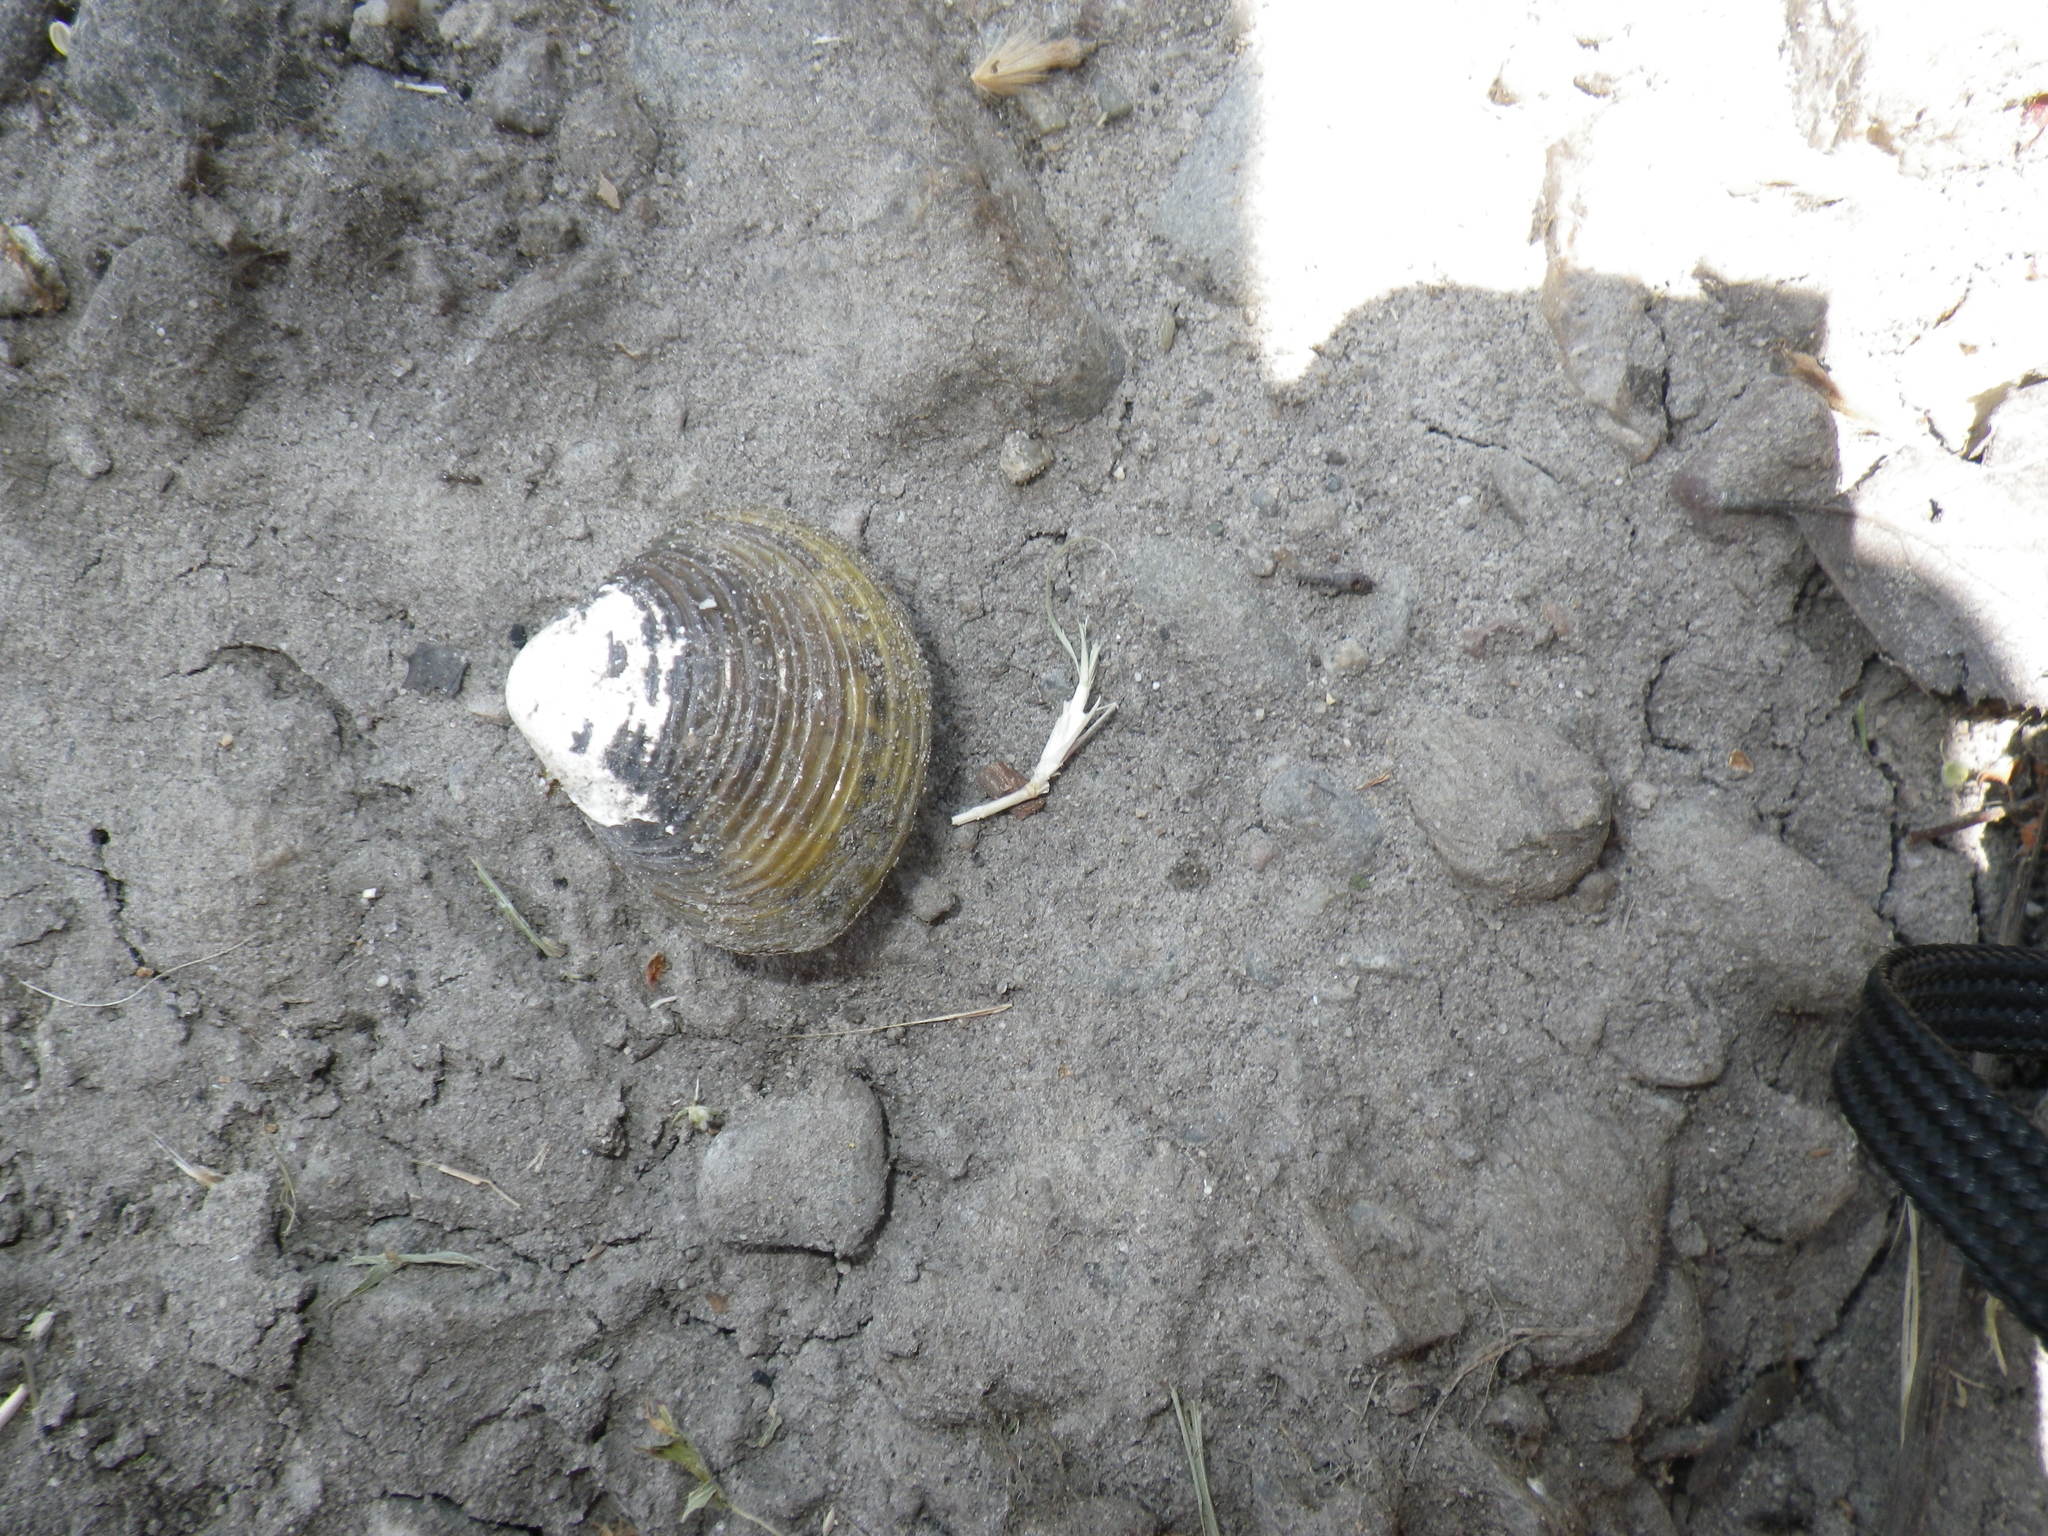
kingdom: Animalia
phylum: Mollusca
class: Bivalvia
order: Venerida
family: Cyrenidae
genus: Corbicula
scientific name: Corbicula fluminea
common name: Asian clam
